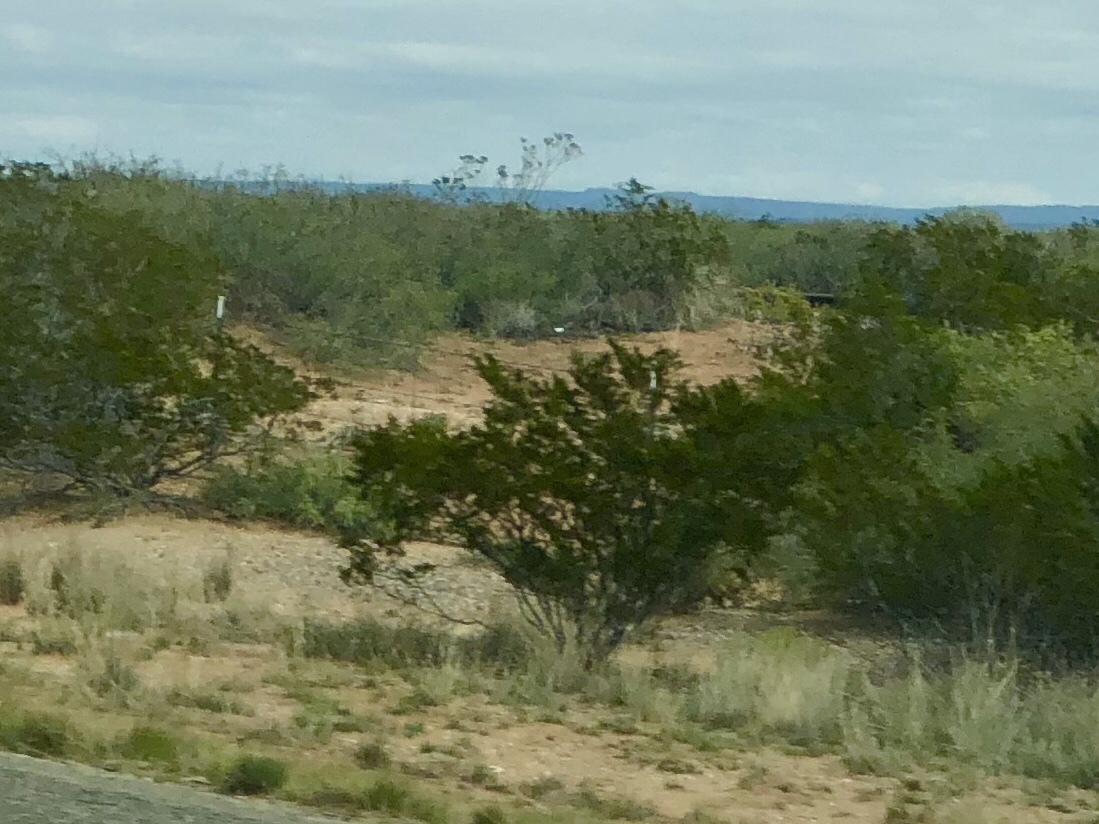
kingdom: Plantae
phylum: Tracheophyta
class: Magnoliopsida
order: Zygophyllales
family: Zygophyllaceae
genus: Larrea
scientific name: Larrea tridentata
